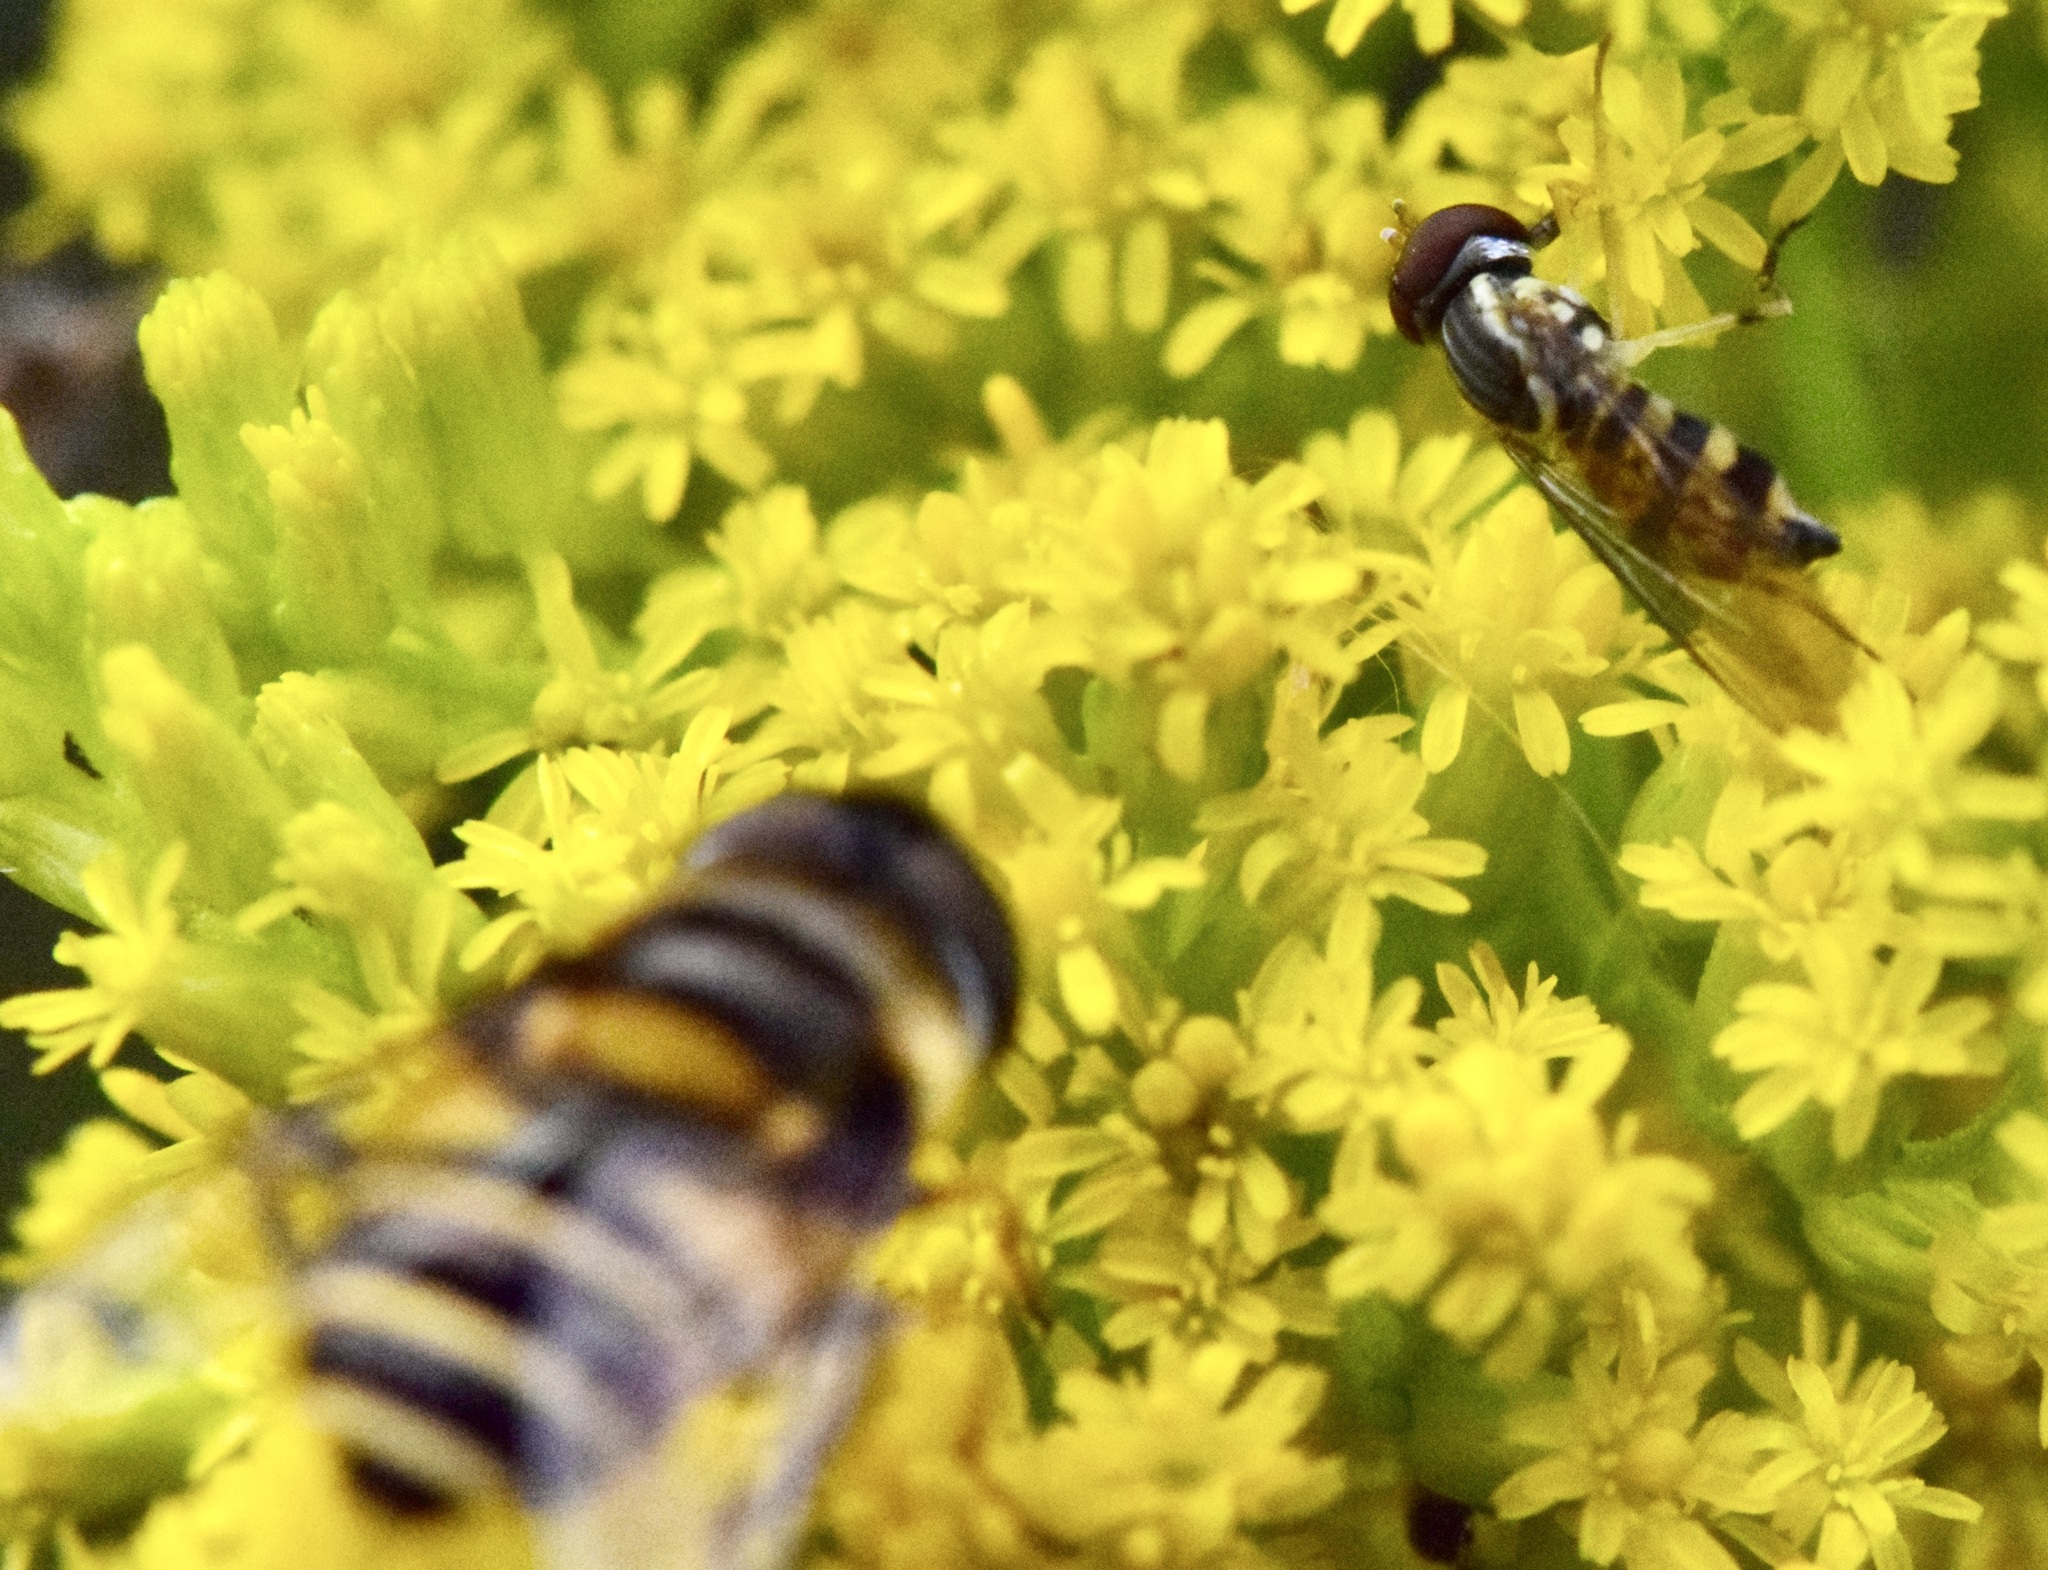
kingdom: Animalia
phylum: Arthropoda
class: Insecta
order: Diptera
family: Syrphidae
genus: Toxomerus
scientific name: Toxomerus geminatus
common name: Eastern calligrapher
